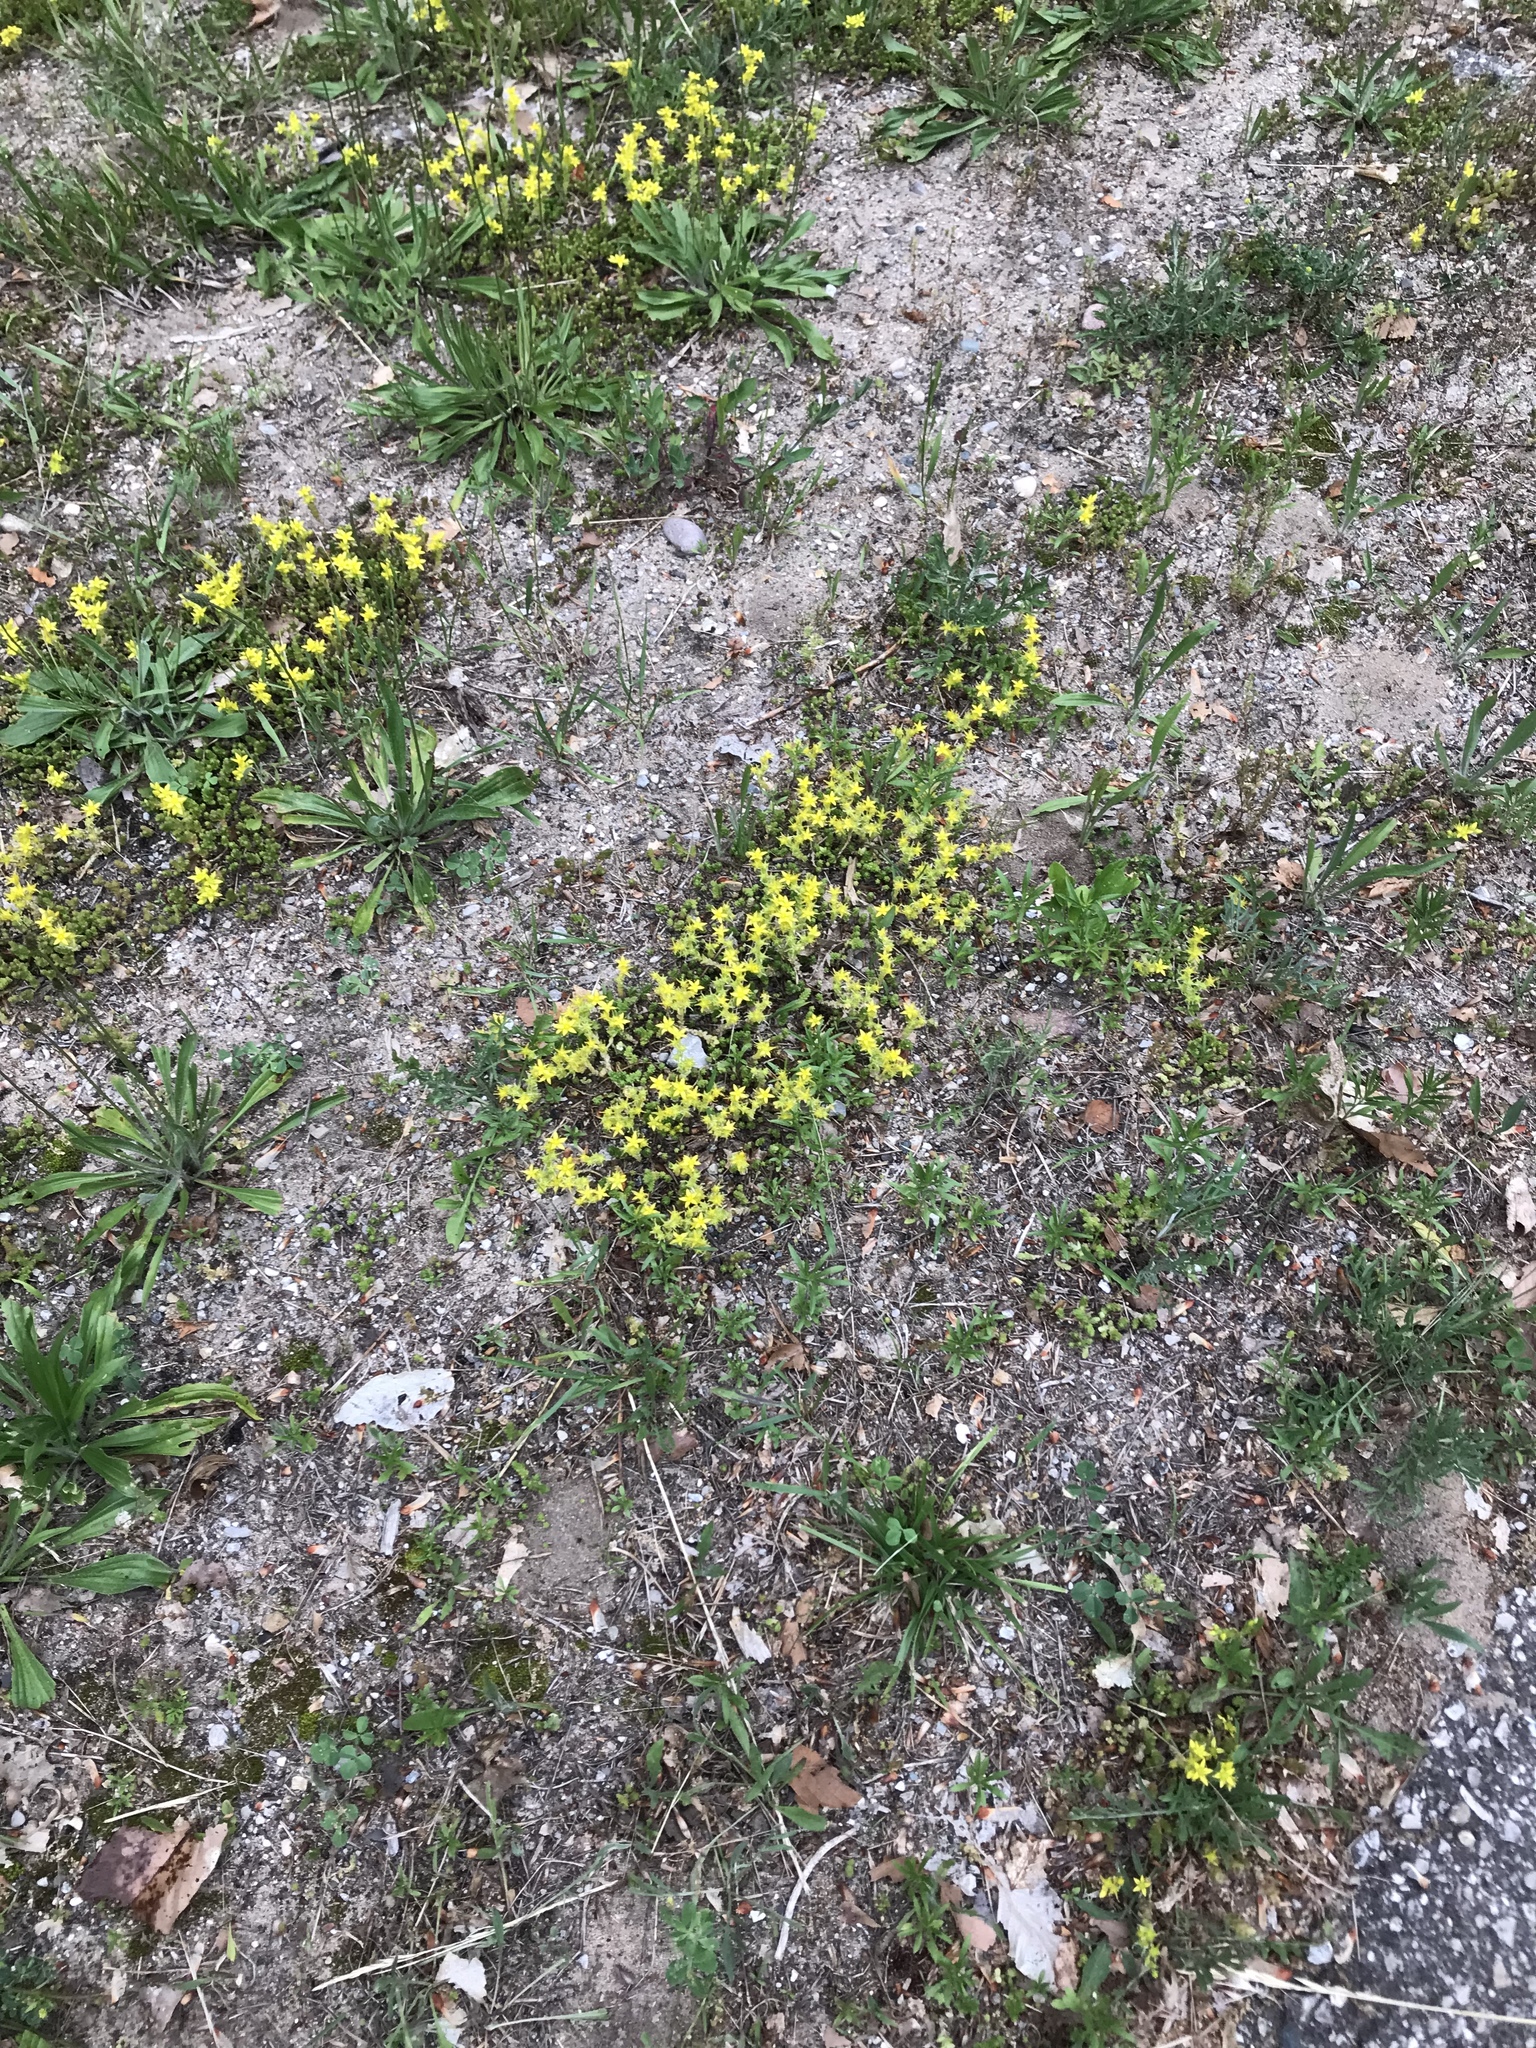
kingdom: Plantae
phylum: Tracheophyta
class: Magnoliopsida
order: Saxifragales
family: Crassulaceae
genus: Sedum
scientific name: Sedum acre
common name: Biting stonecrop
